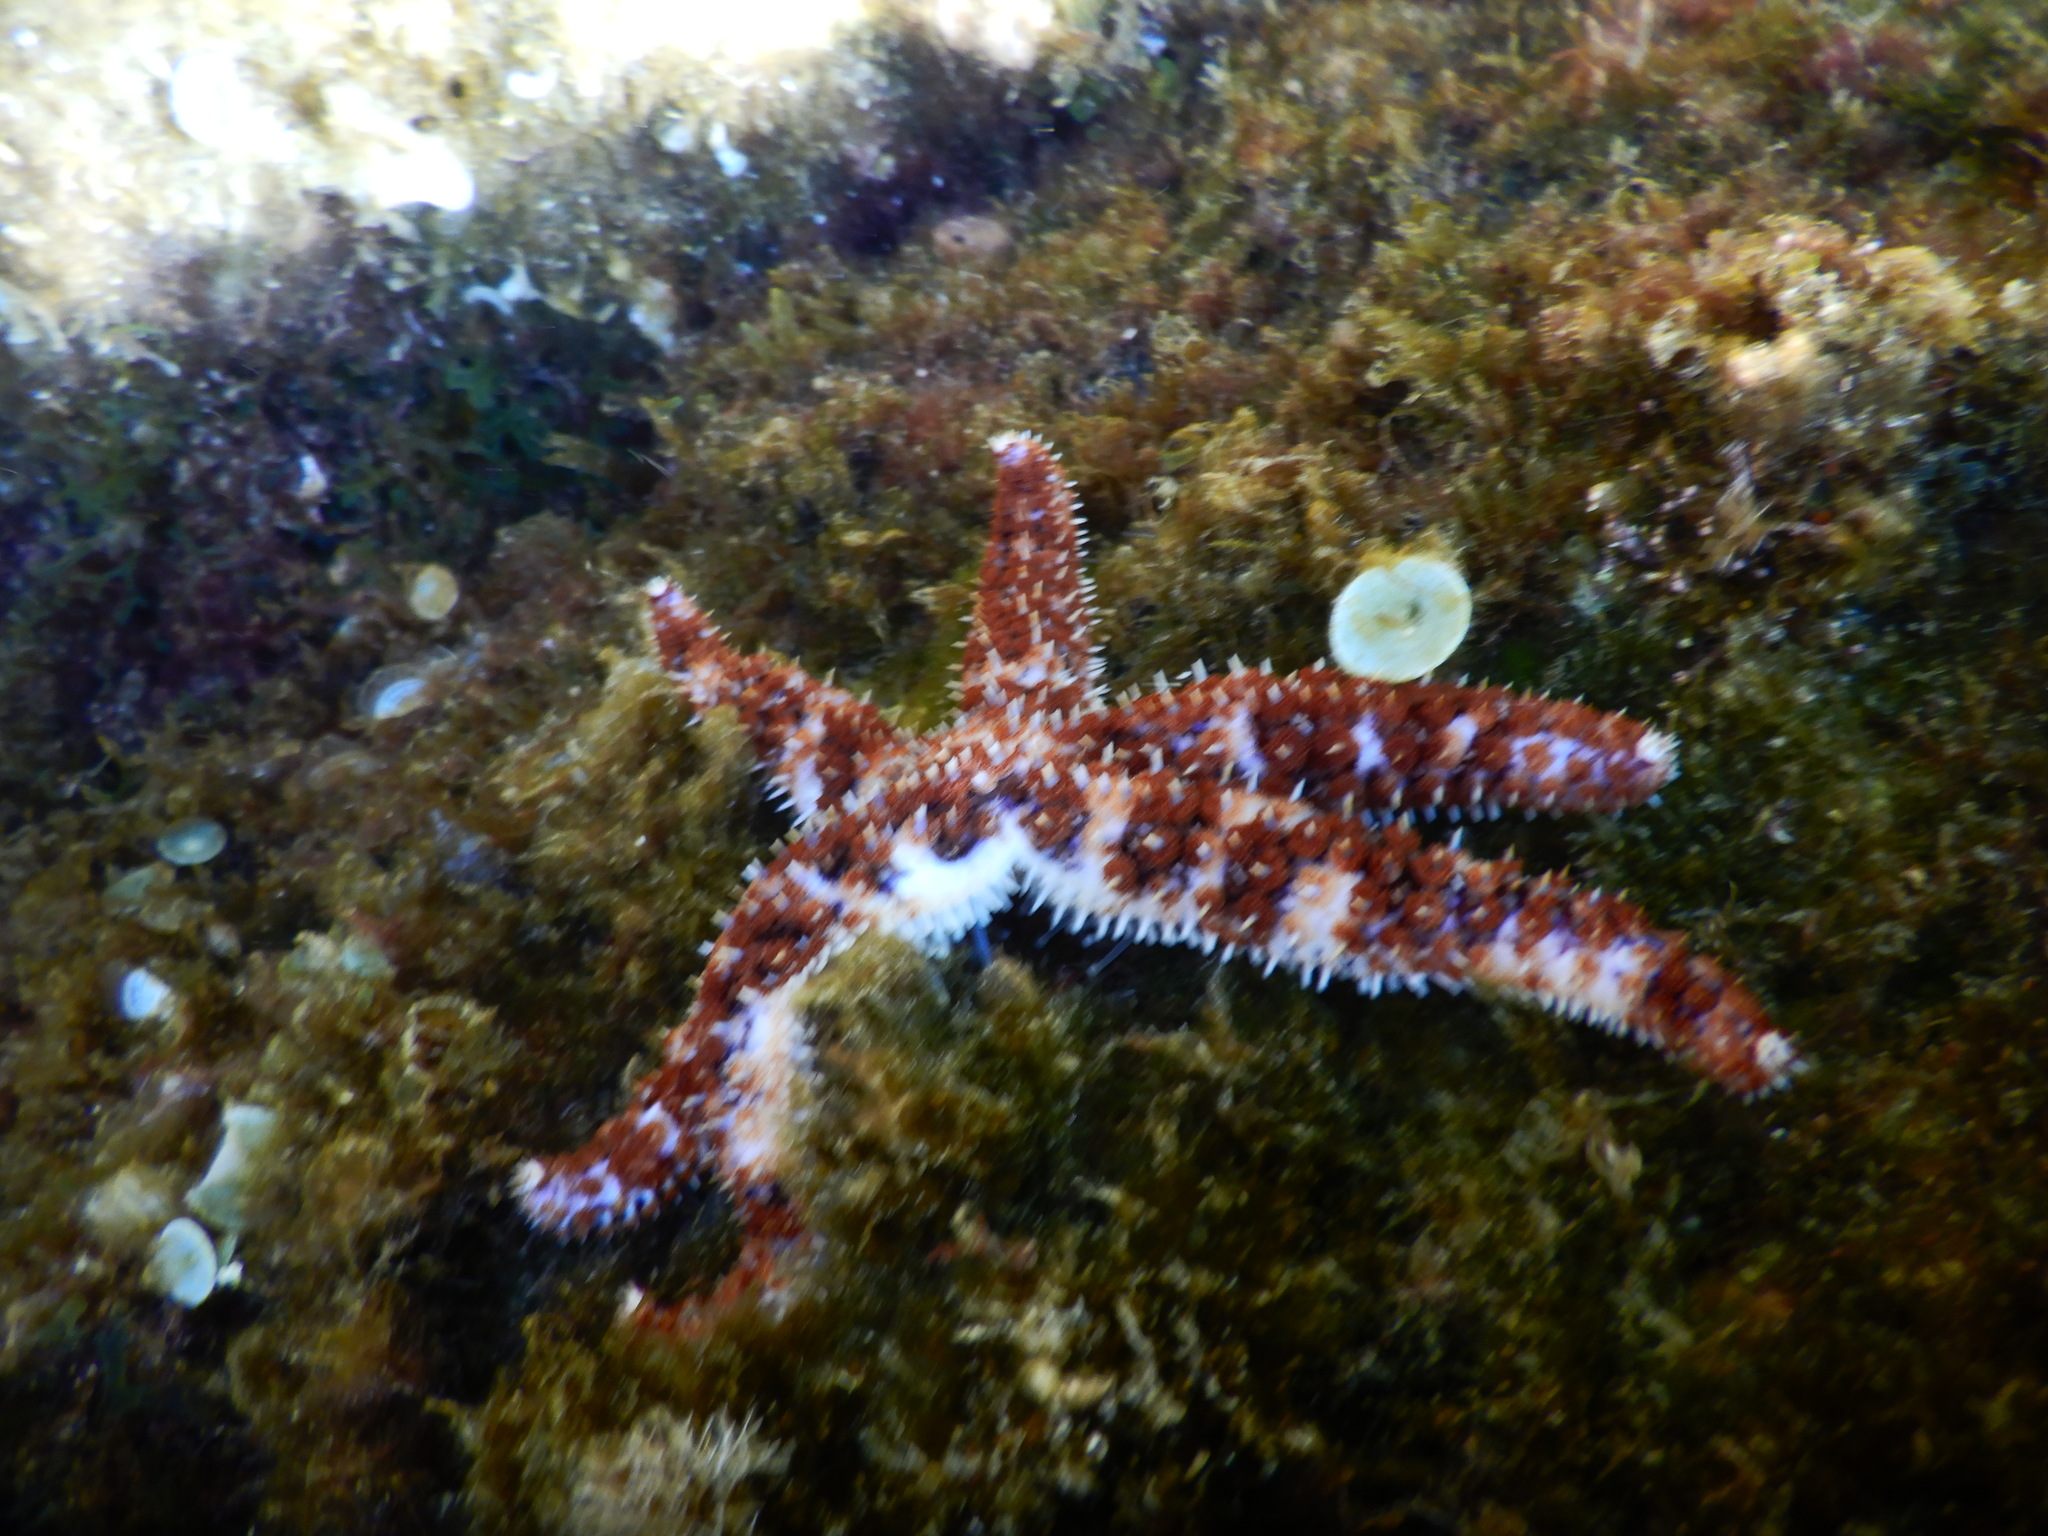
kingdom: Animalia
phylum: Echinodermata
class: Asteroidea
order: Forcipulatida
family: Asteriidae
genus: Coscinasterias
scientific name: Coscinasterias tenuispina
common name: Blue spiny starfish
